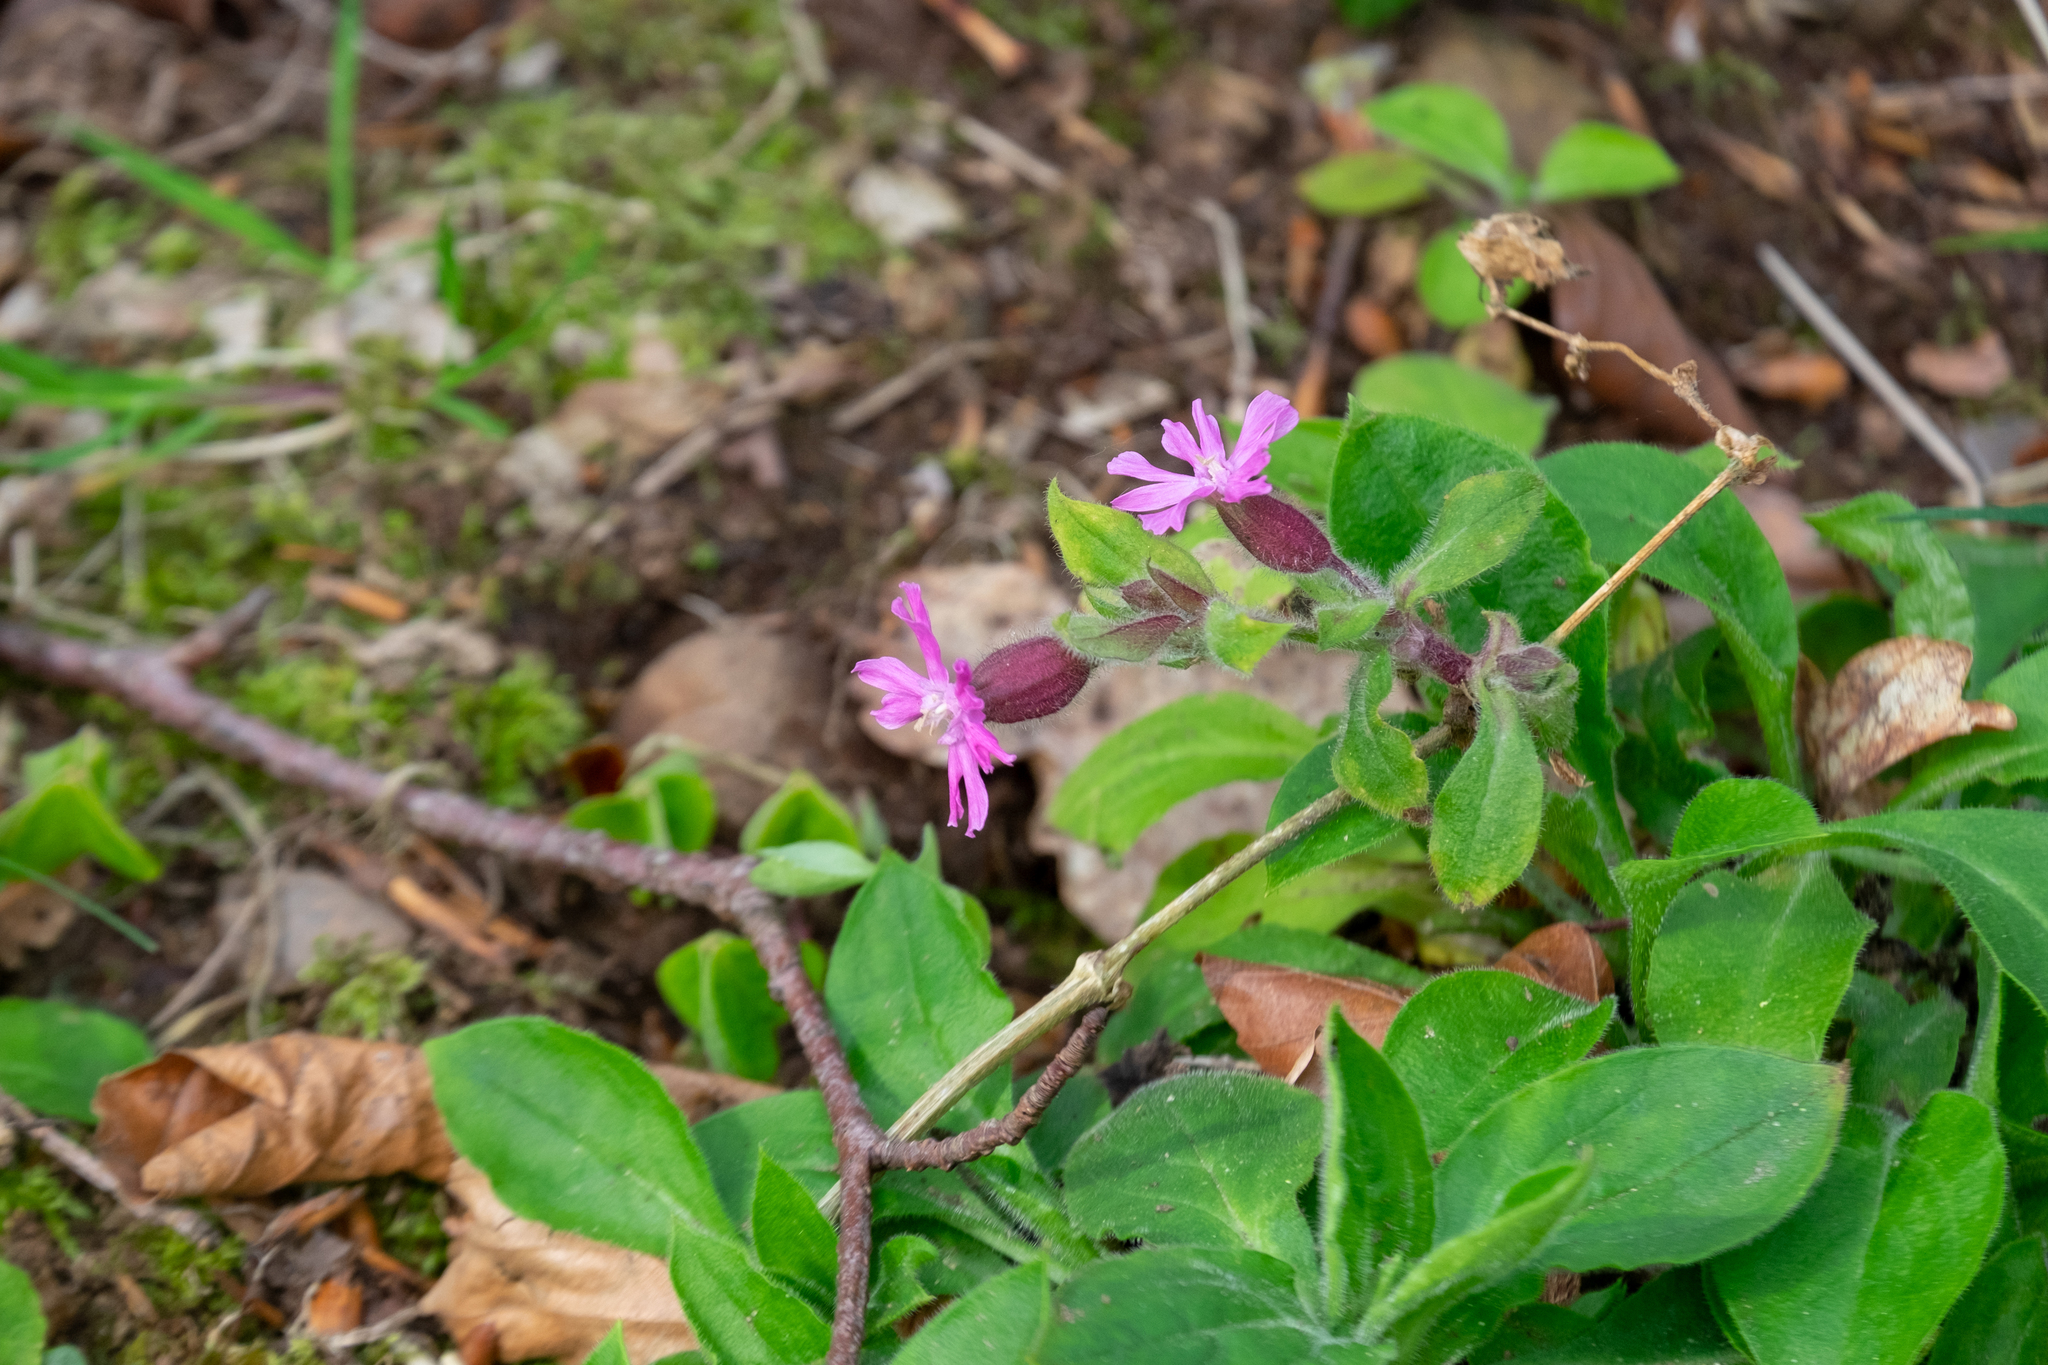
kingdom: Plantae
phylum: Tracheophyta
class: Magnoliopsida
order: Caryophyllales
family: Caryophyllaceae
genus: Silene
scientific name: Silene dioica
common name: Red campion
